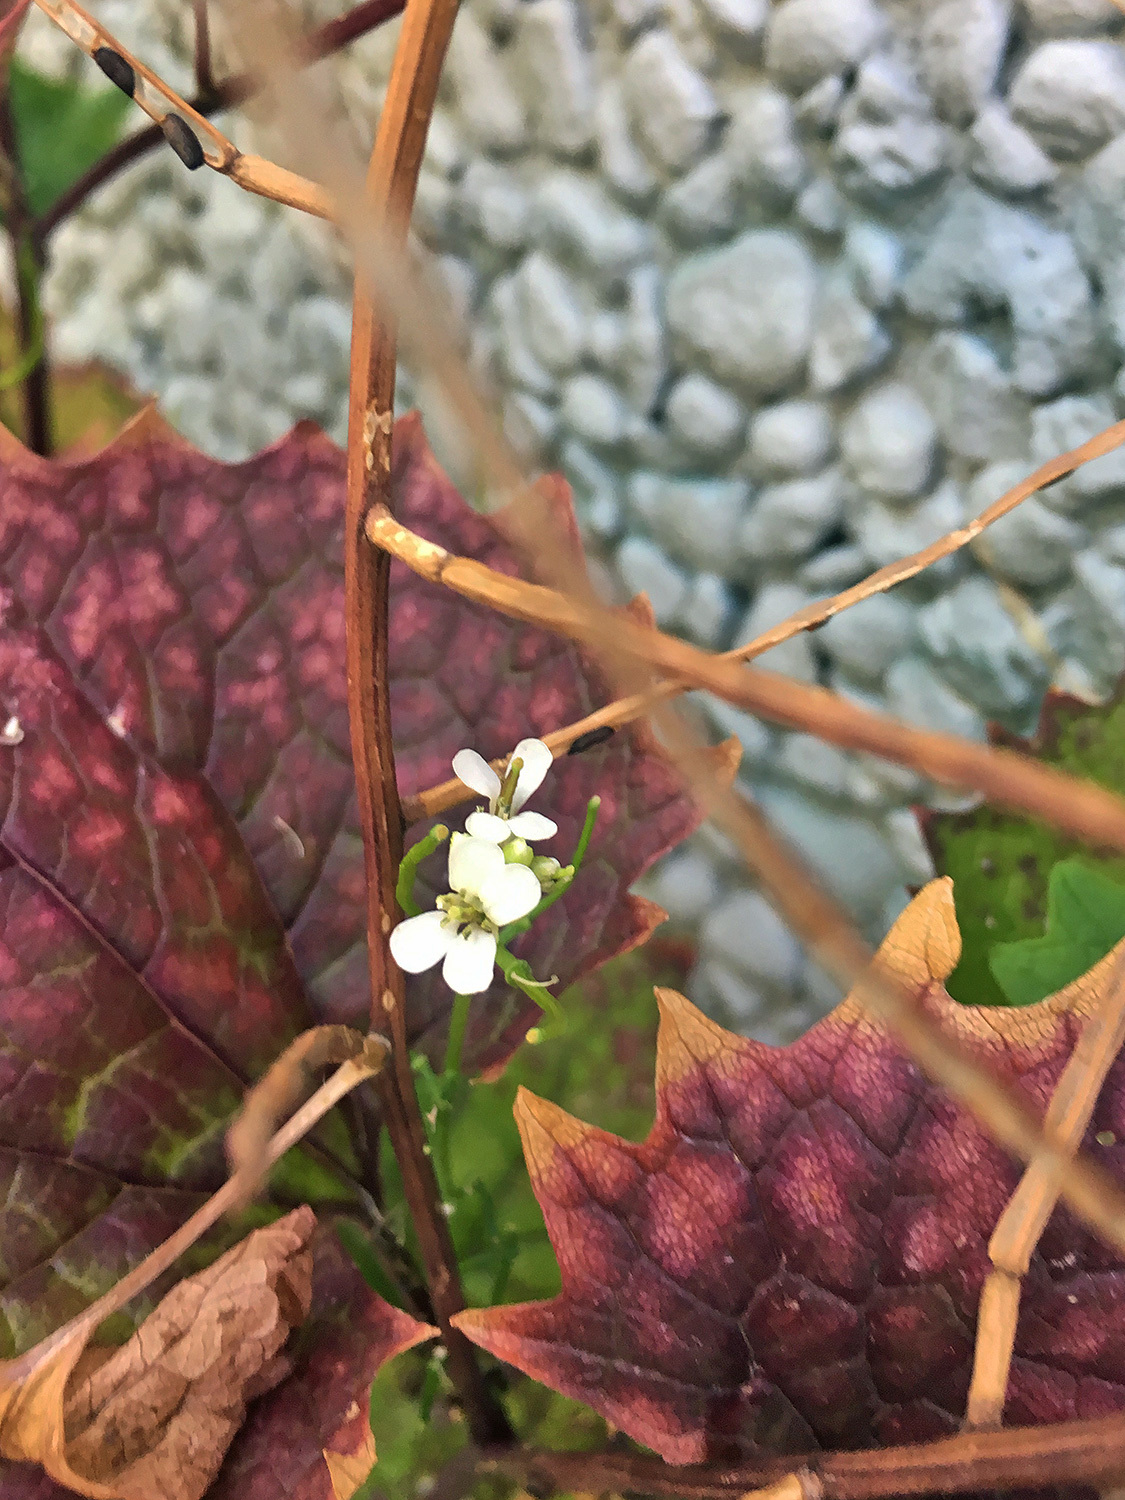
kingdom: Plantae
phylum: Tracheophyta
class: Magnoliopsida
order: Brassicales
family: Brassicaceae
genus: Alliaria
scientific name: Alliaria petiolata
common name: Garlic mustard
